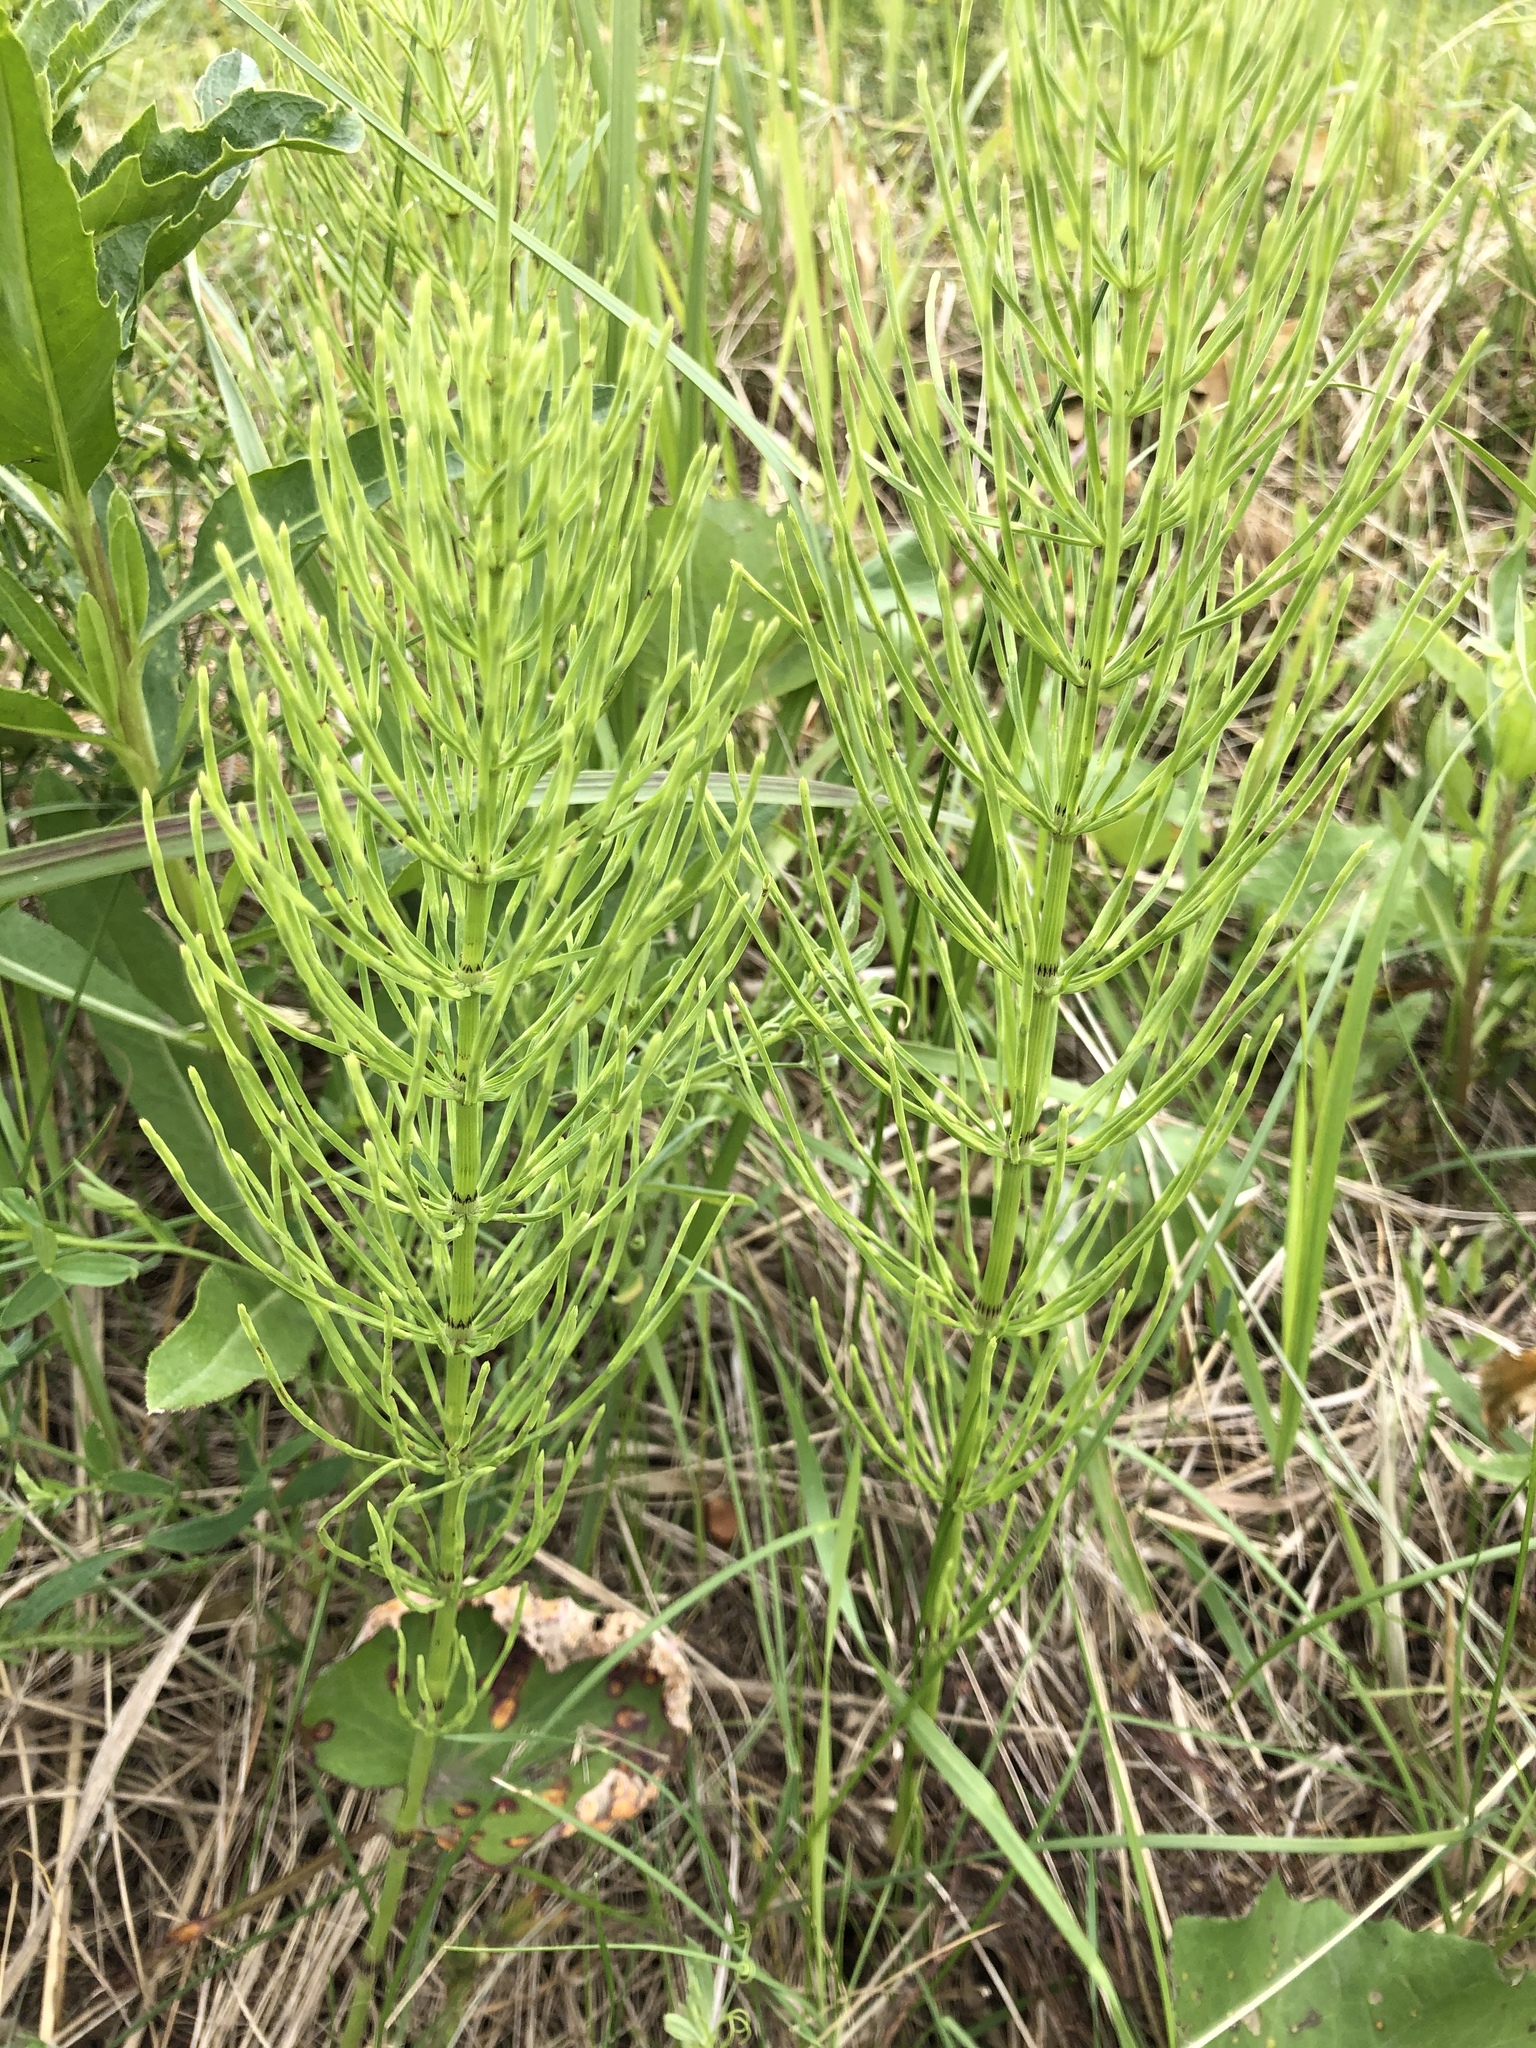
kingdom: Plantae
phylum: Tracheophyta
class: Polypodiopsida
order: Equisetales
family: Equisetaceae
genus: Equisetum
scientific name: Equisetum arvense
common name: Field horsetail
